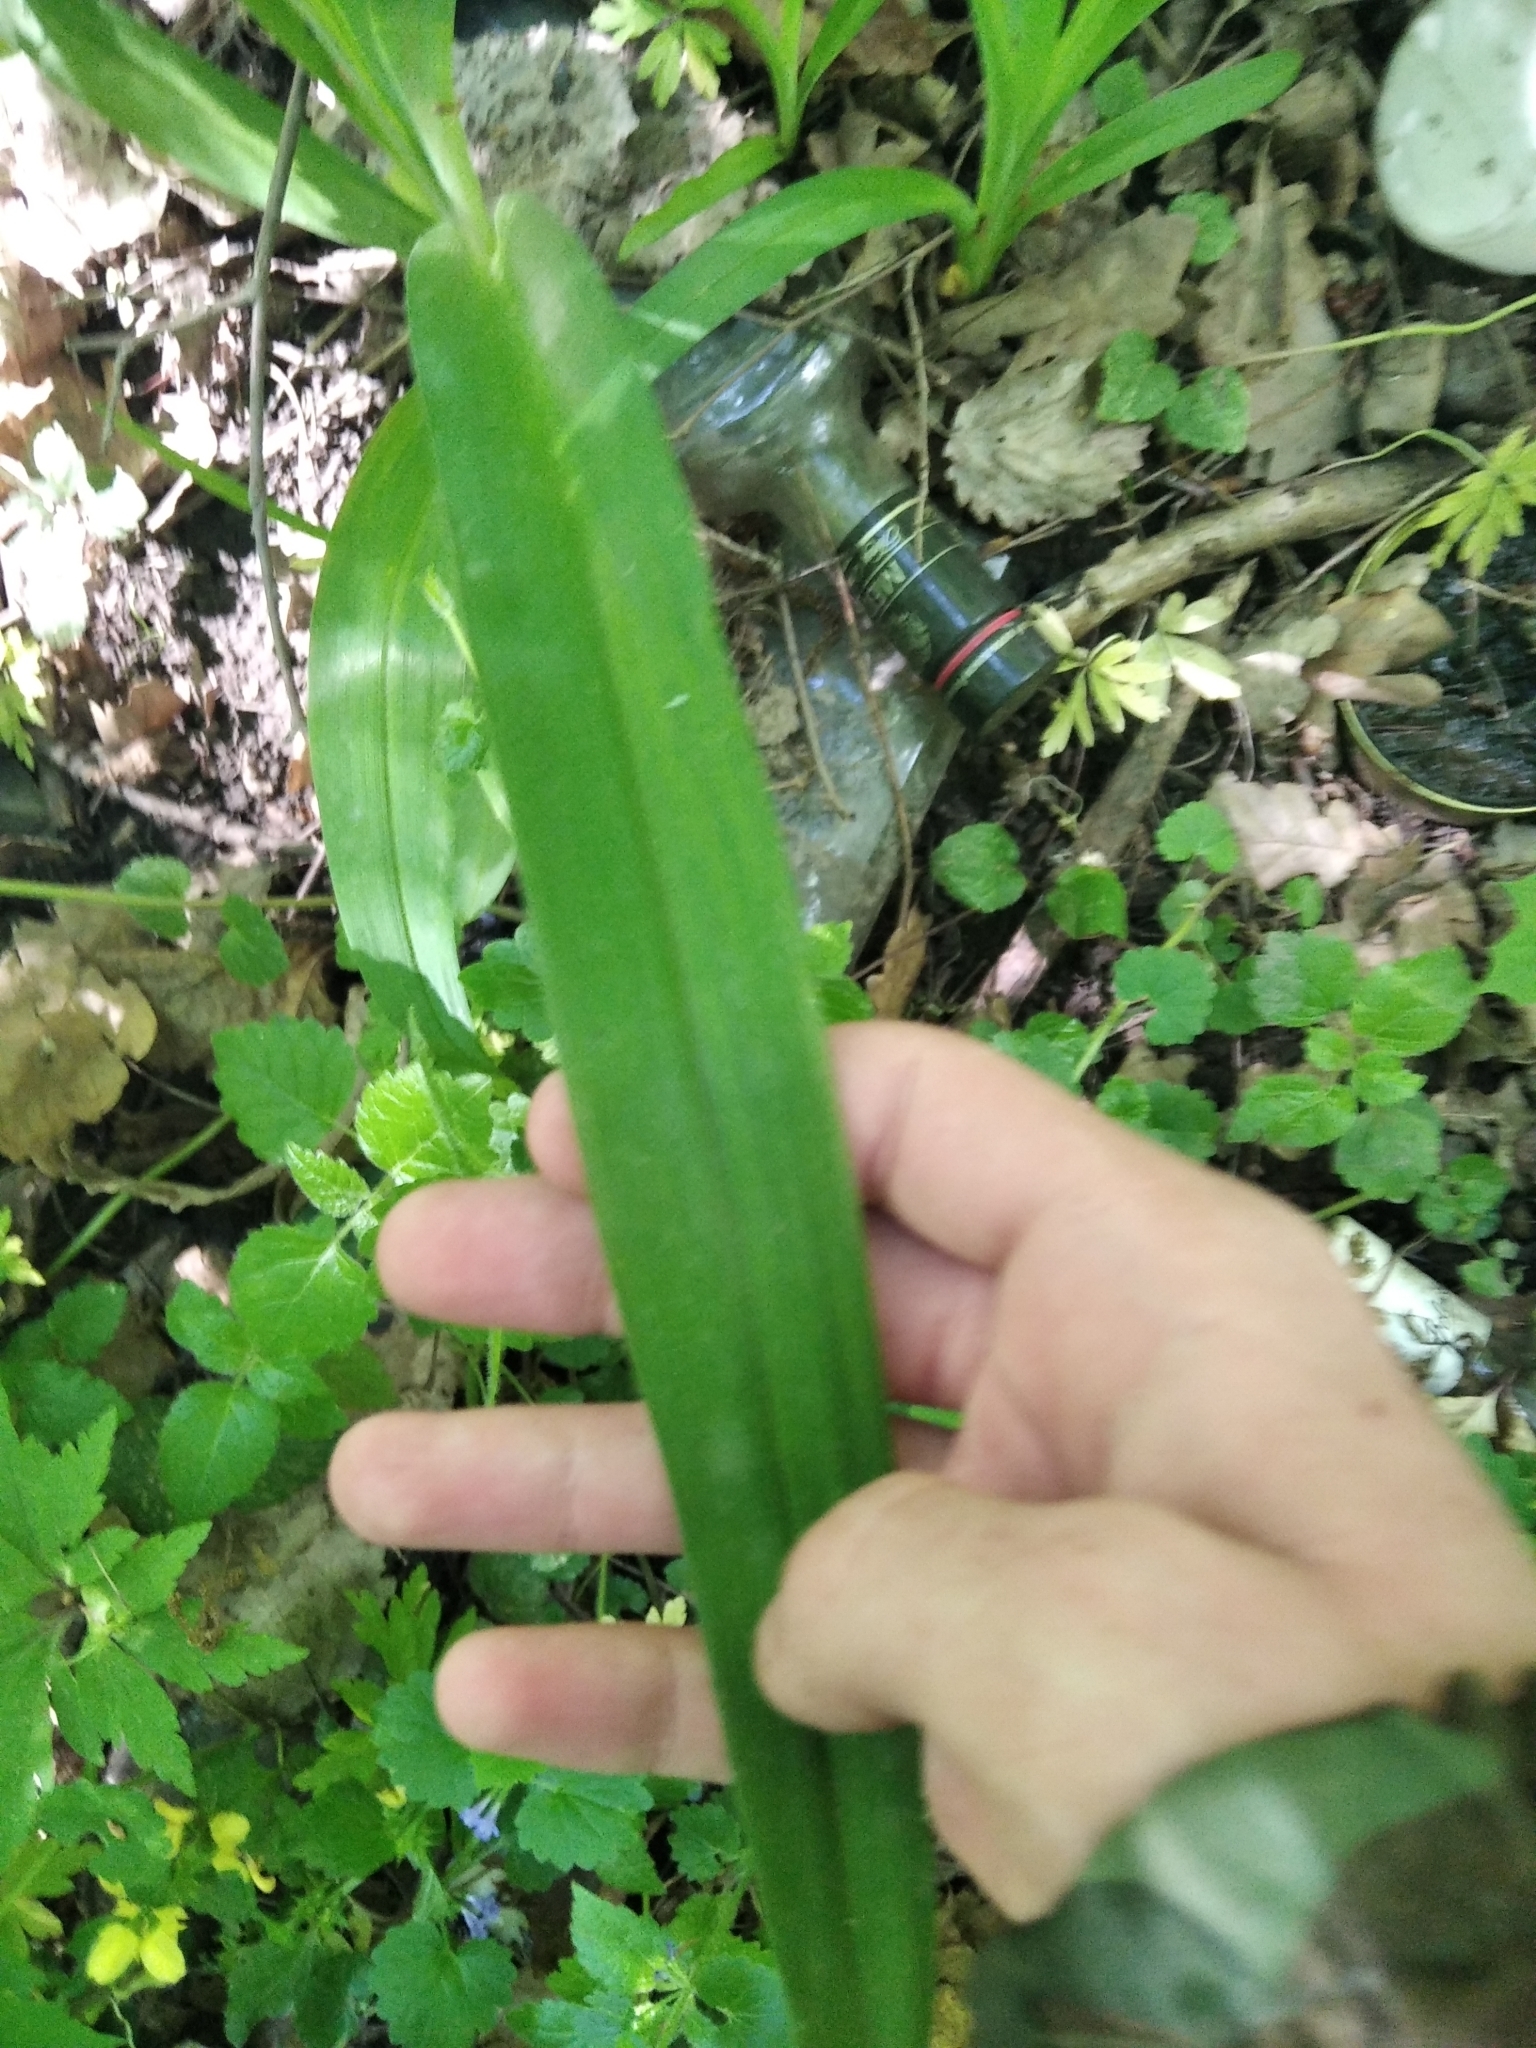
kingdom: Plantae
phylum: Tracheophyta
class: Liliopsida
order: Asparagales
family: Asphodelaceae
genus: Hemerocallis
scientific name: Hemerocallis fulva
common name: Orange day-lily
